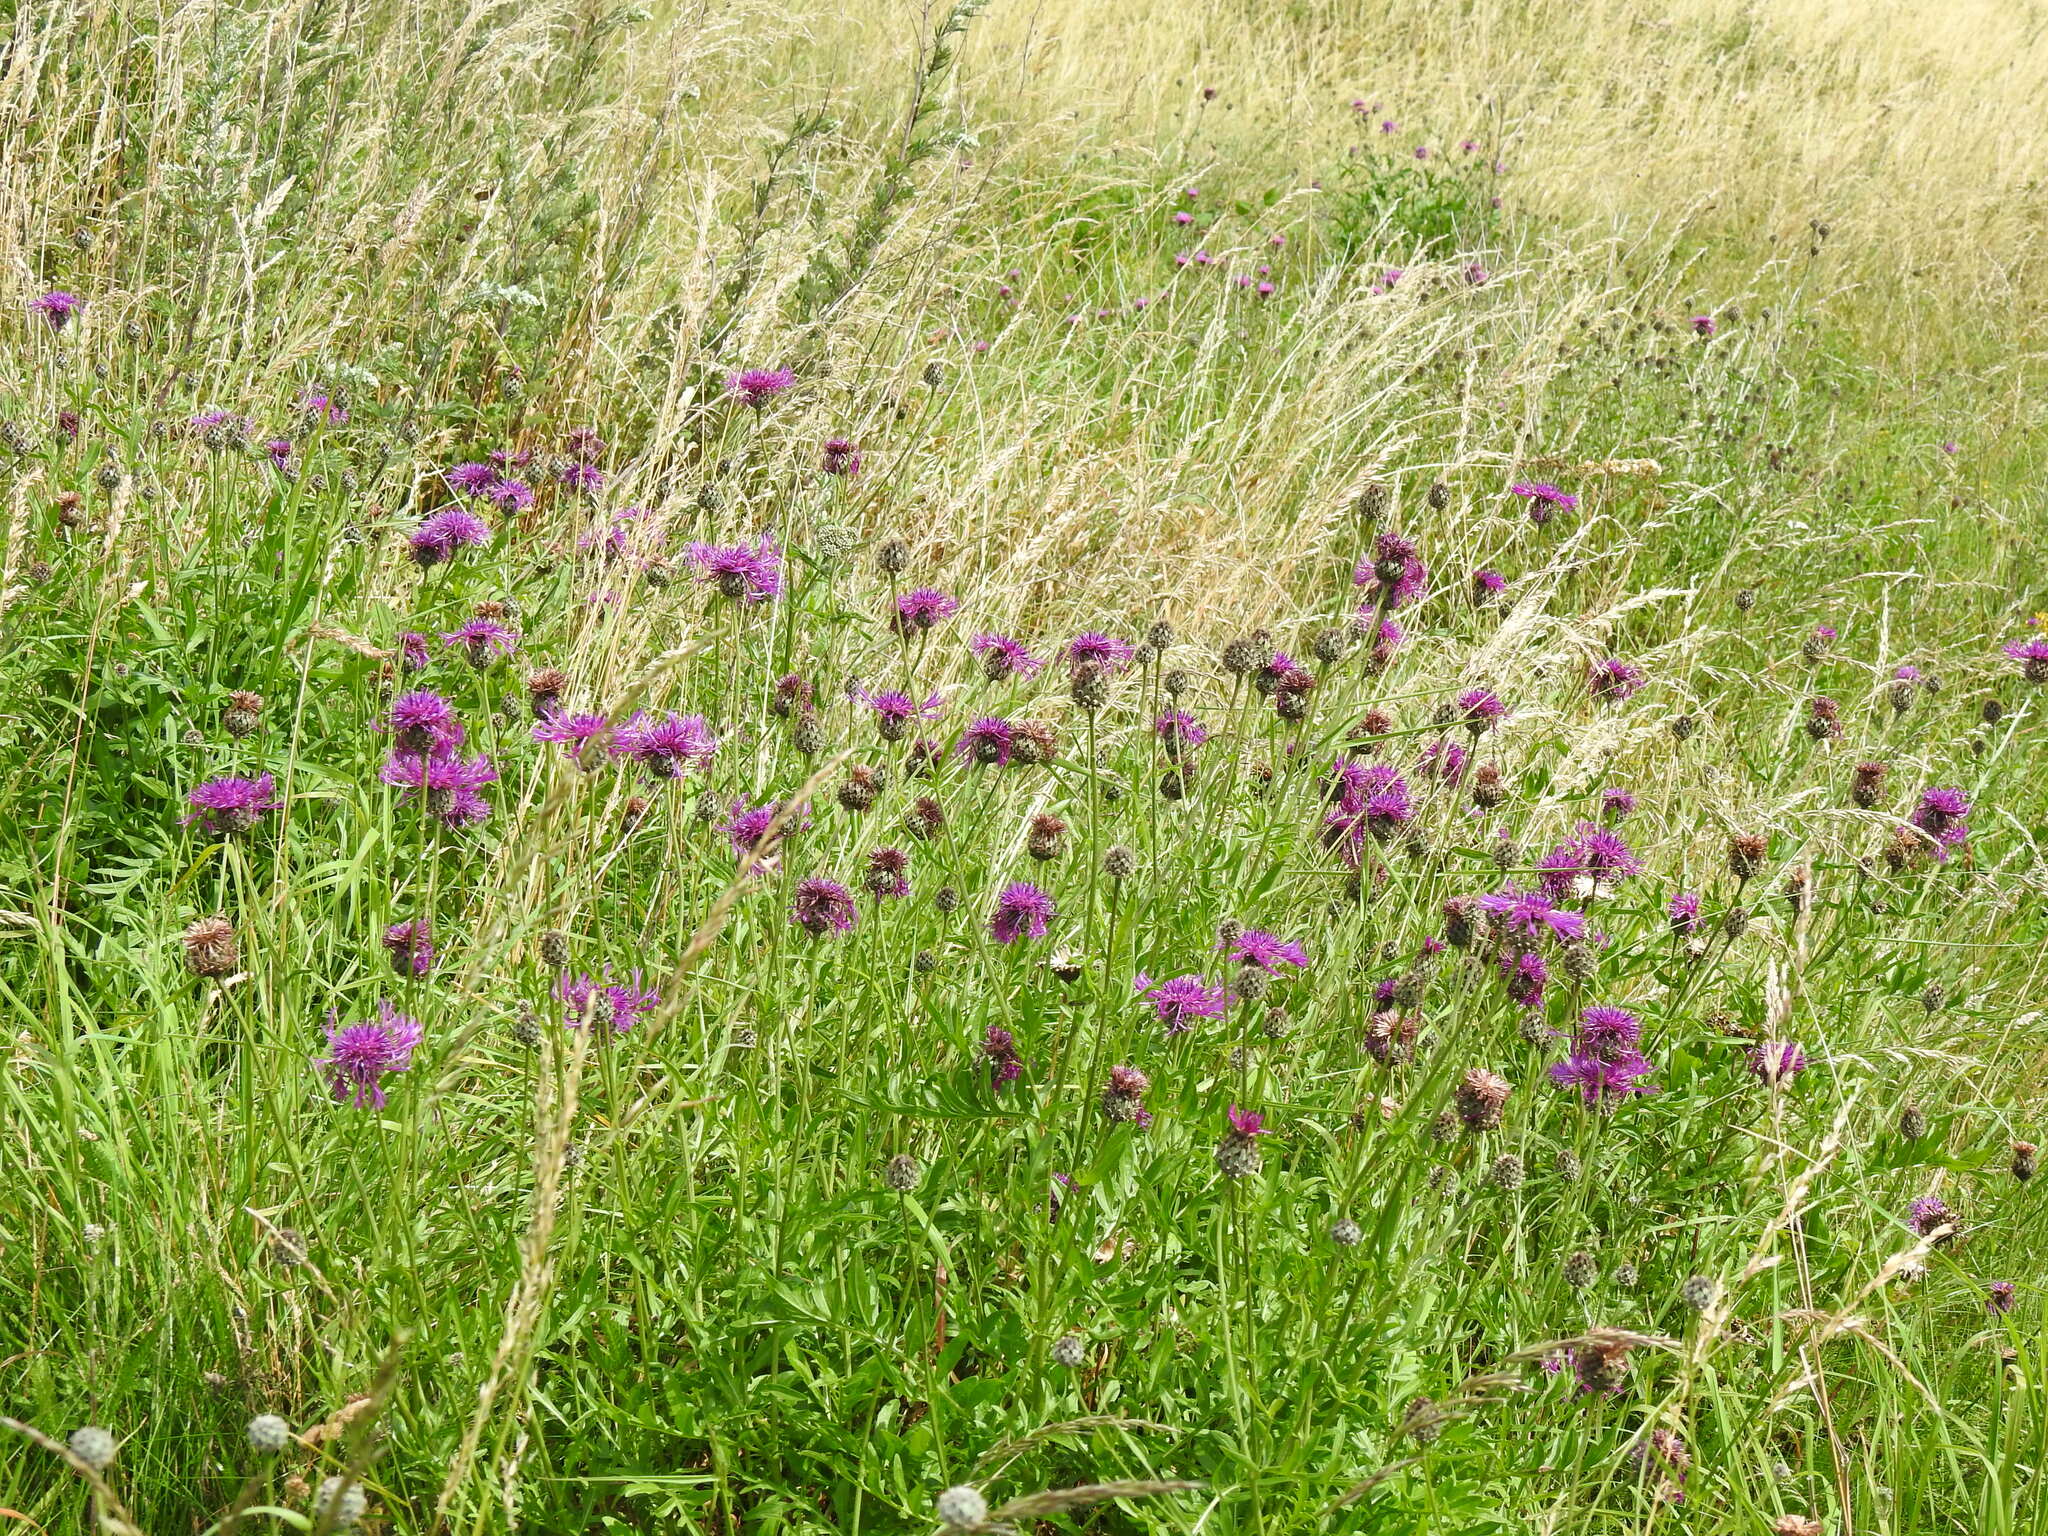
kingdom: Plantae
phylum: Tracheophyta
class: Magnoliopsida
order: Asterales
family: Asteraceae
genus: Centaurea
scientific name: Centaurea scabiosa
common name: Greater knapweed
